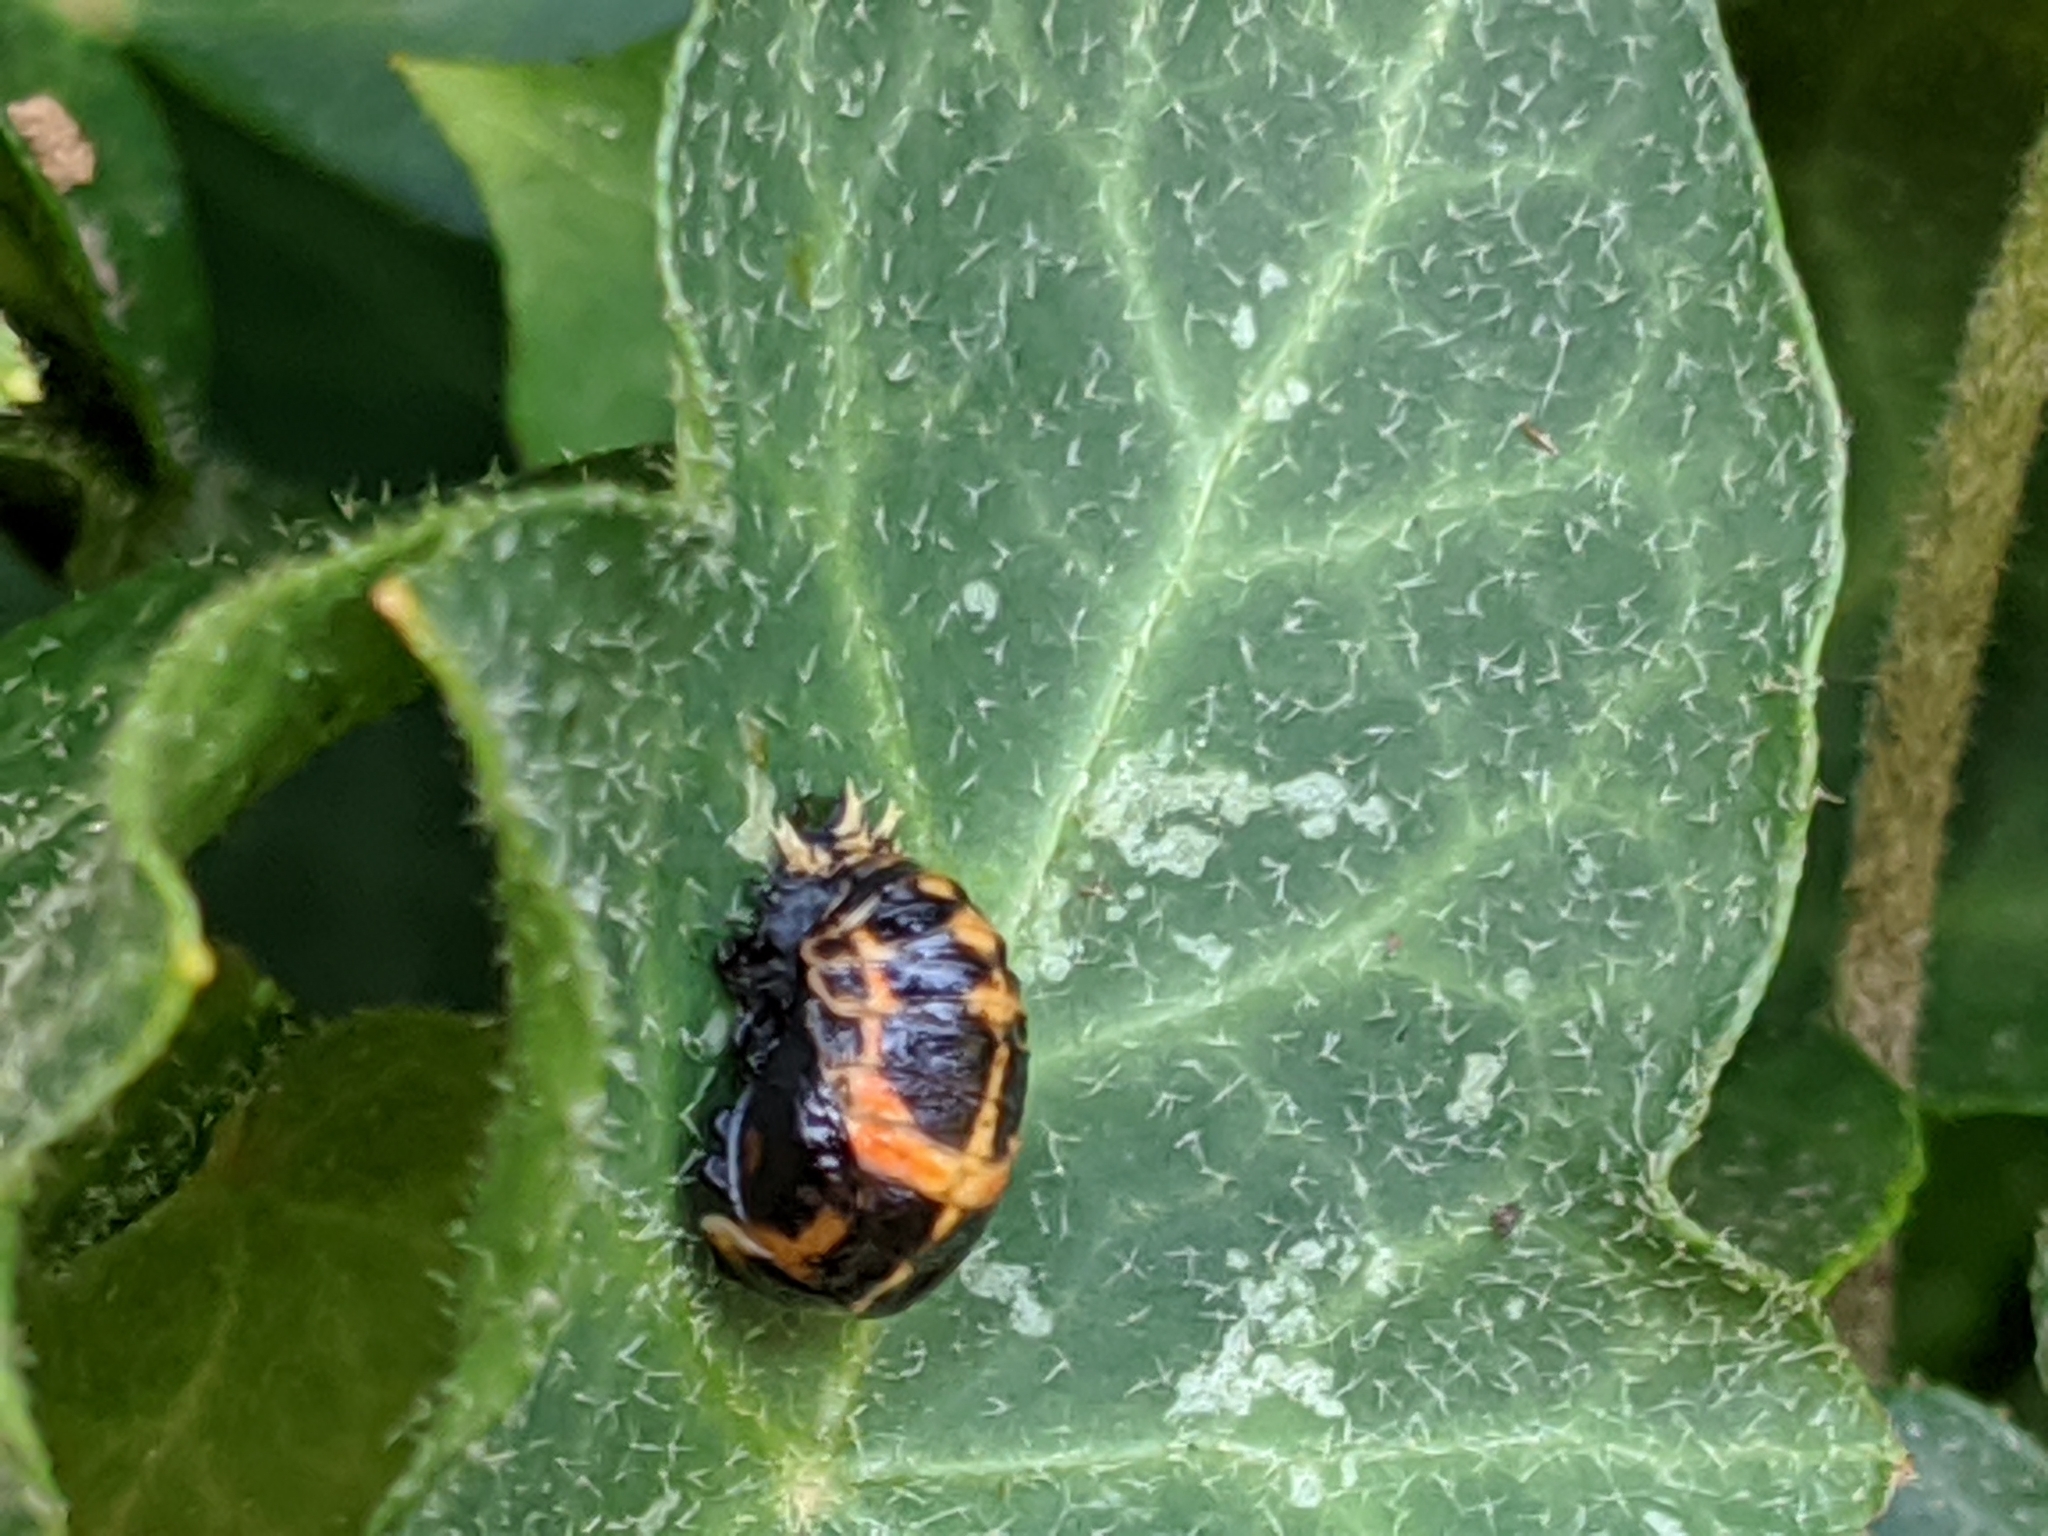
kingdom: Animalia
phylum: Arthropoda
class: Insecta
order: Coleoptera
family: Coccinellidae
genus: Harmonia
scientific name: Harmonia axyridis
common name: Harlequin ladybird
